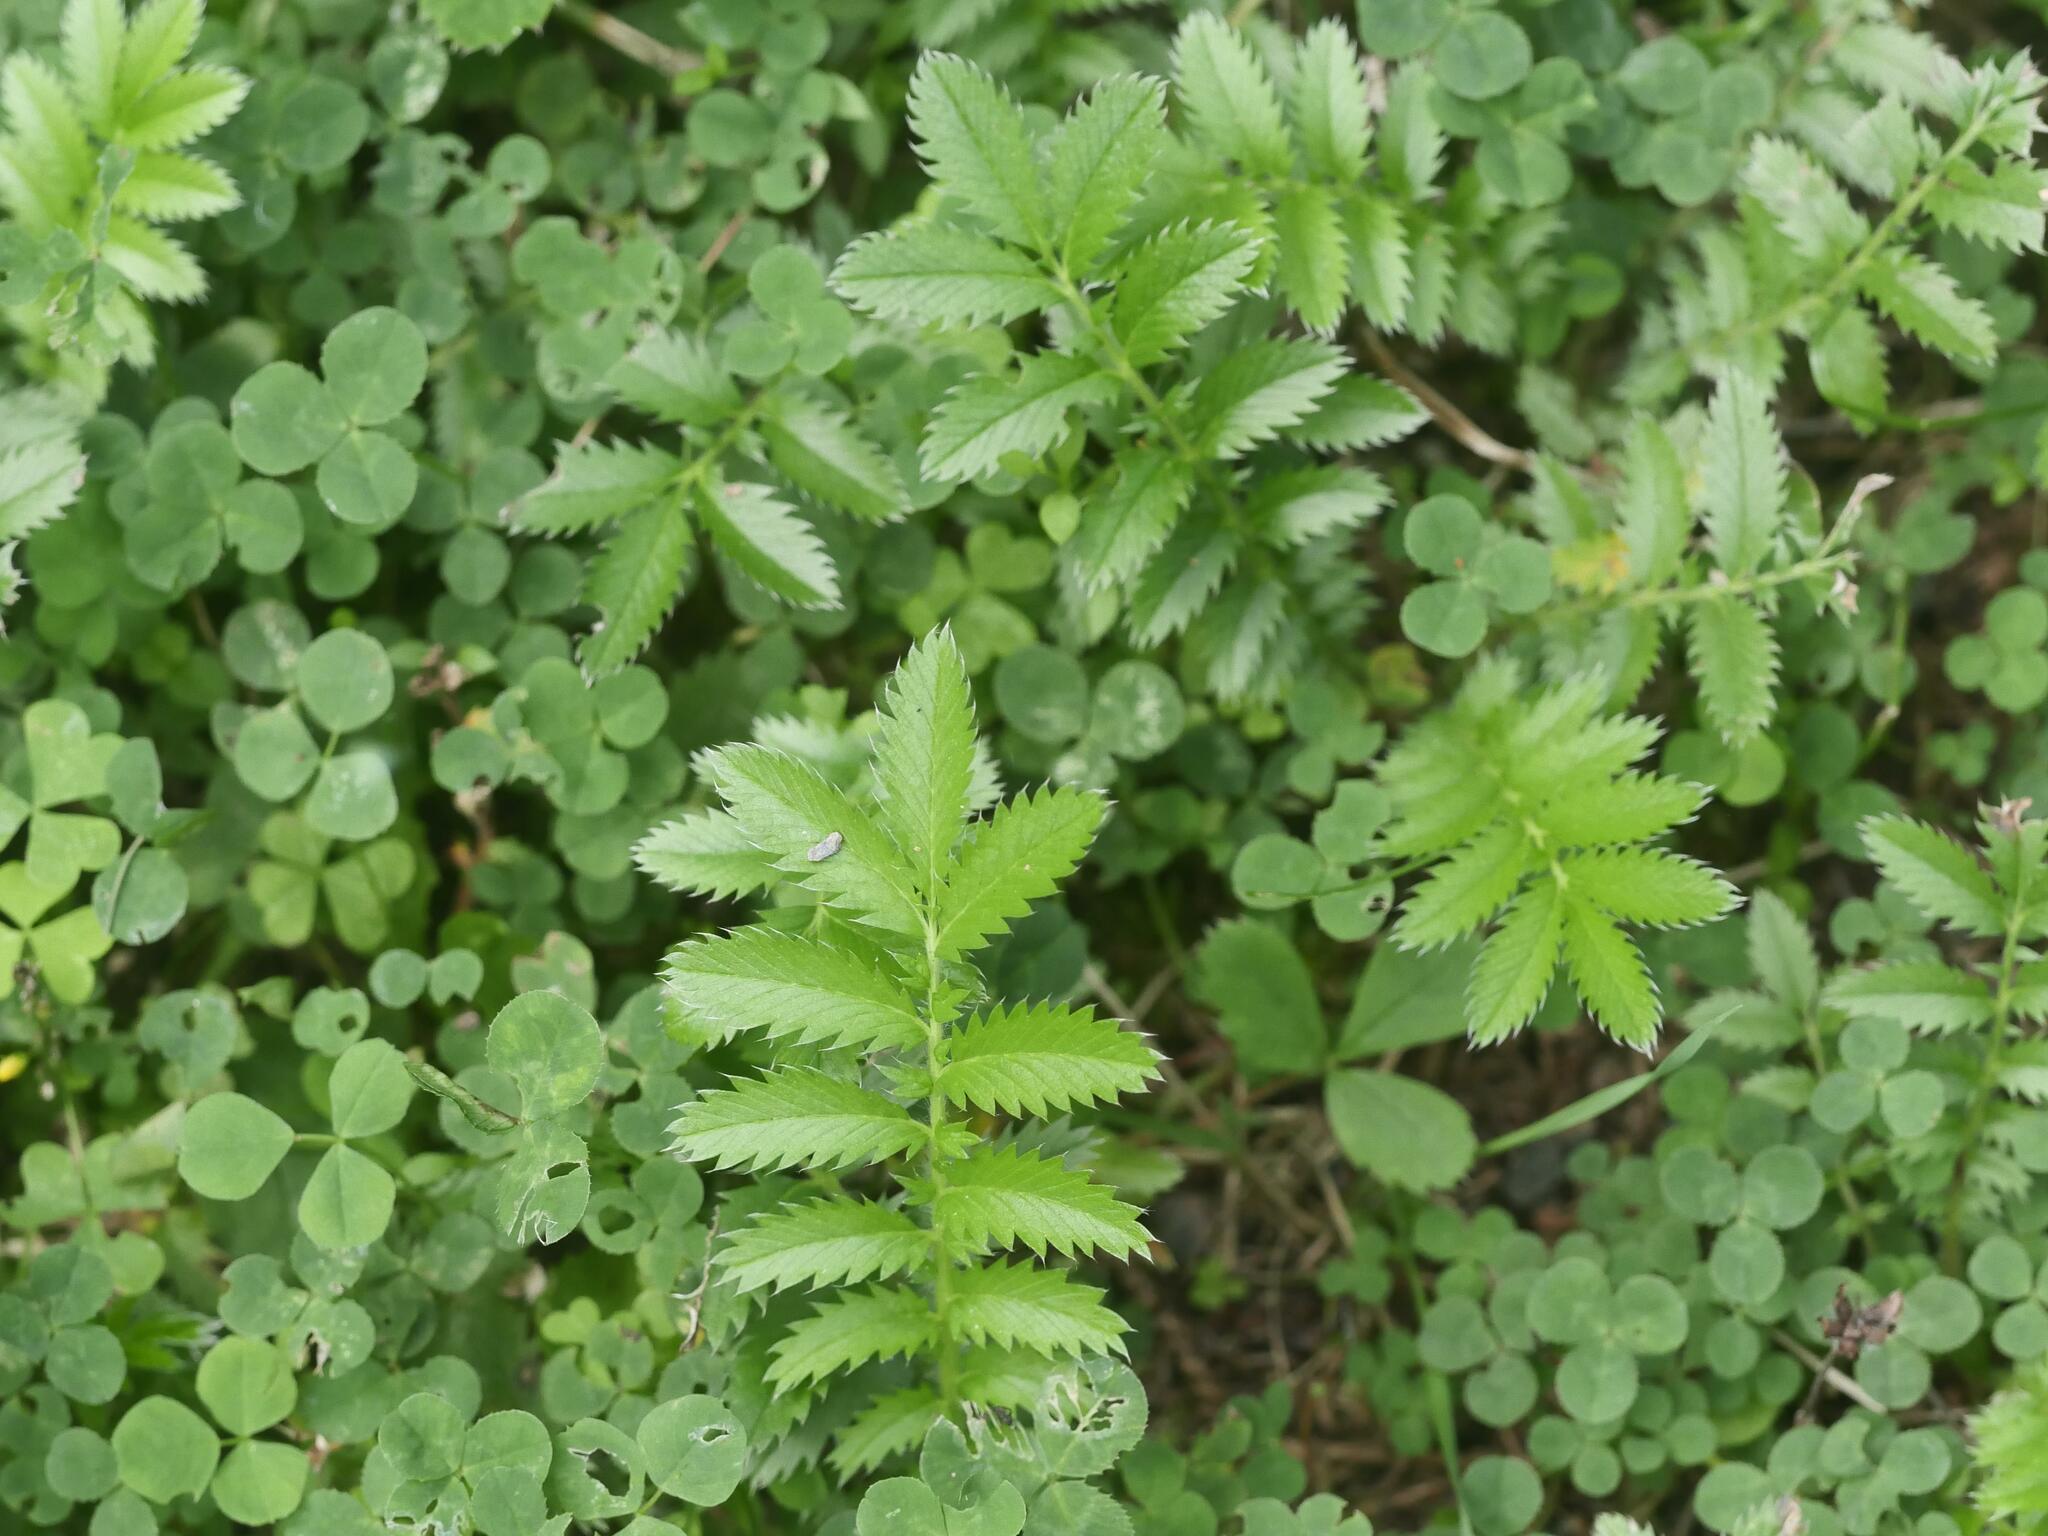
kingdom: Plantae
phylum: Tracheophyta
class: Magnoliopsida
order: Rosales
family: Rosaceae
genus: Argentina
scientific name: Argentina anserina
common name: Common silverweed
